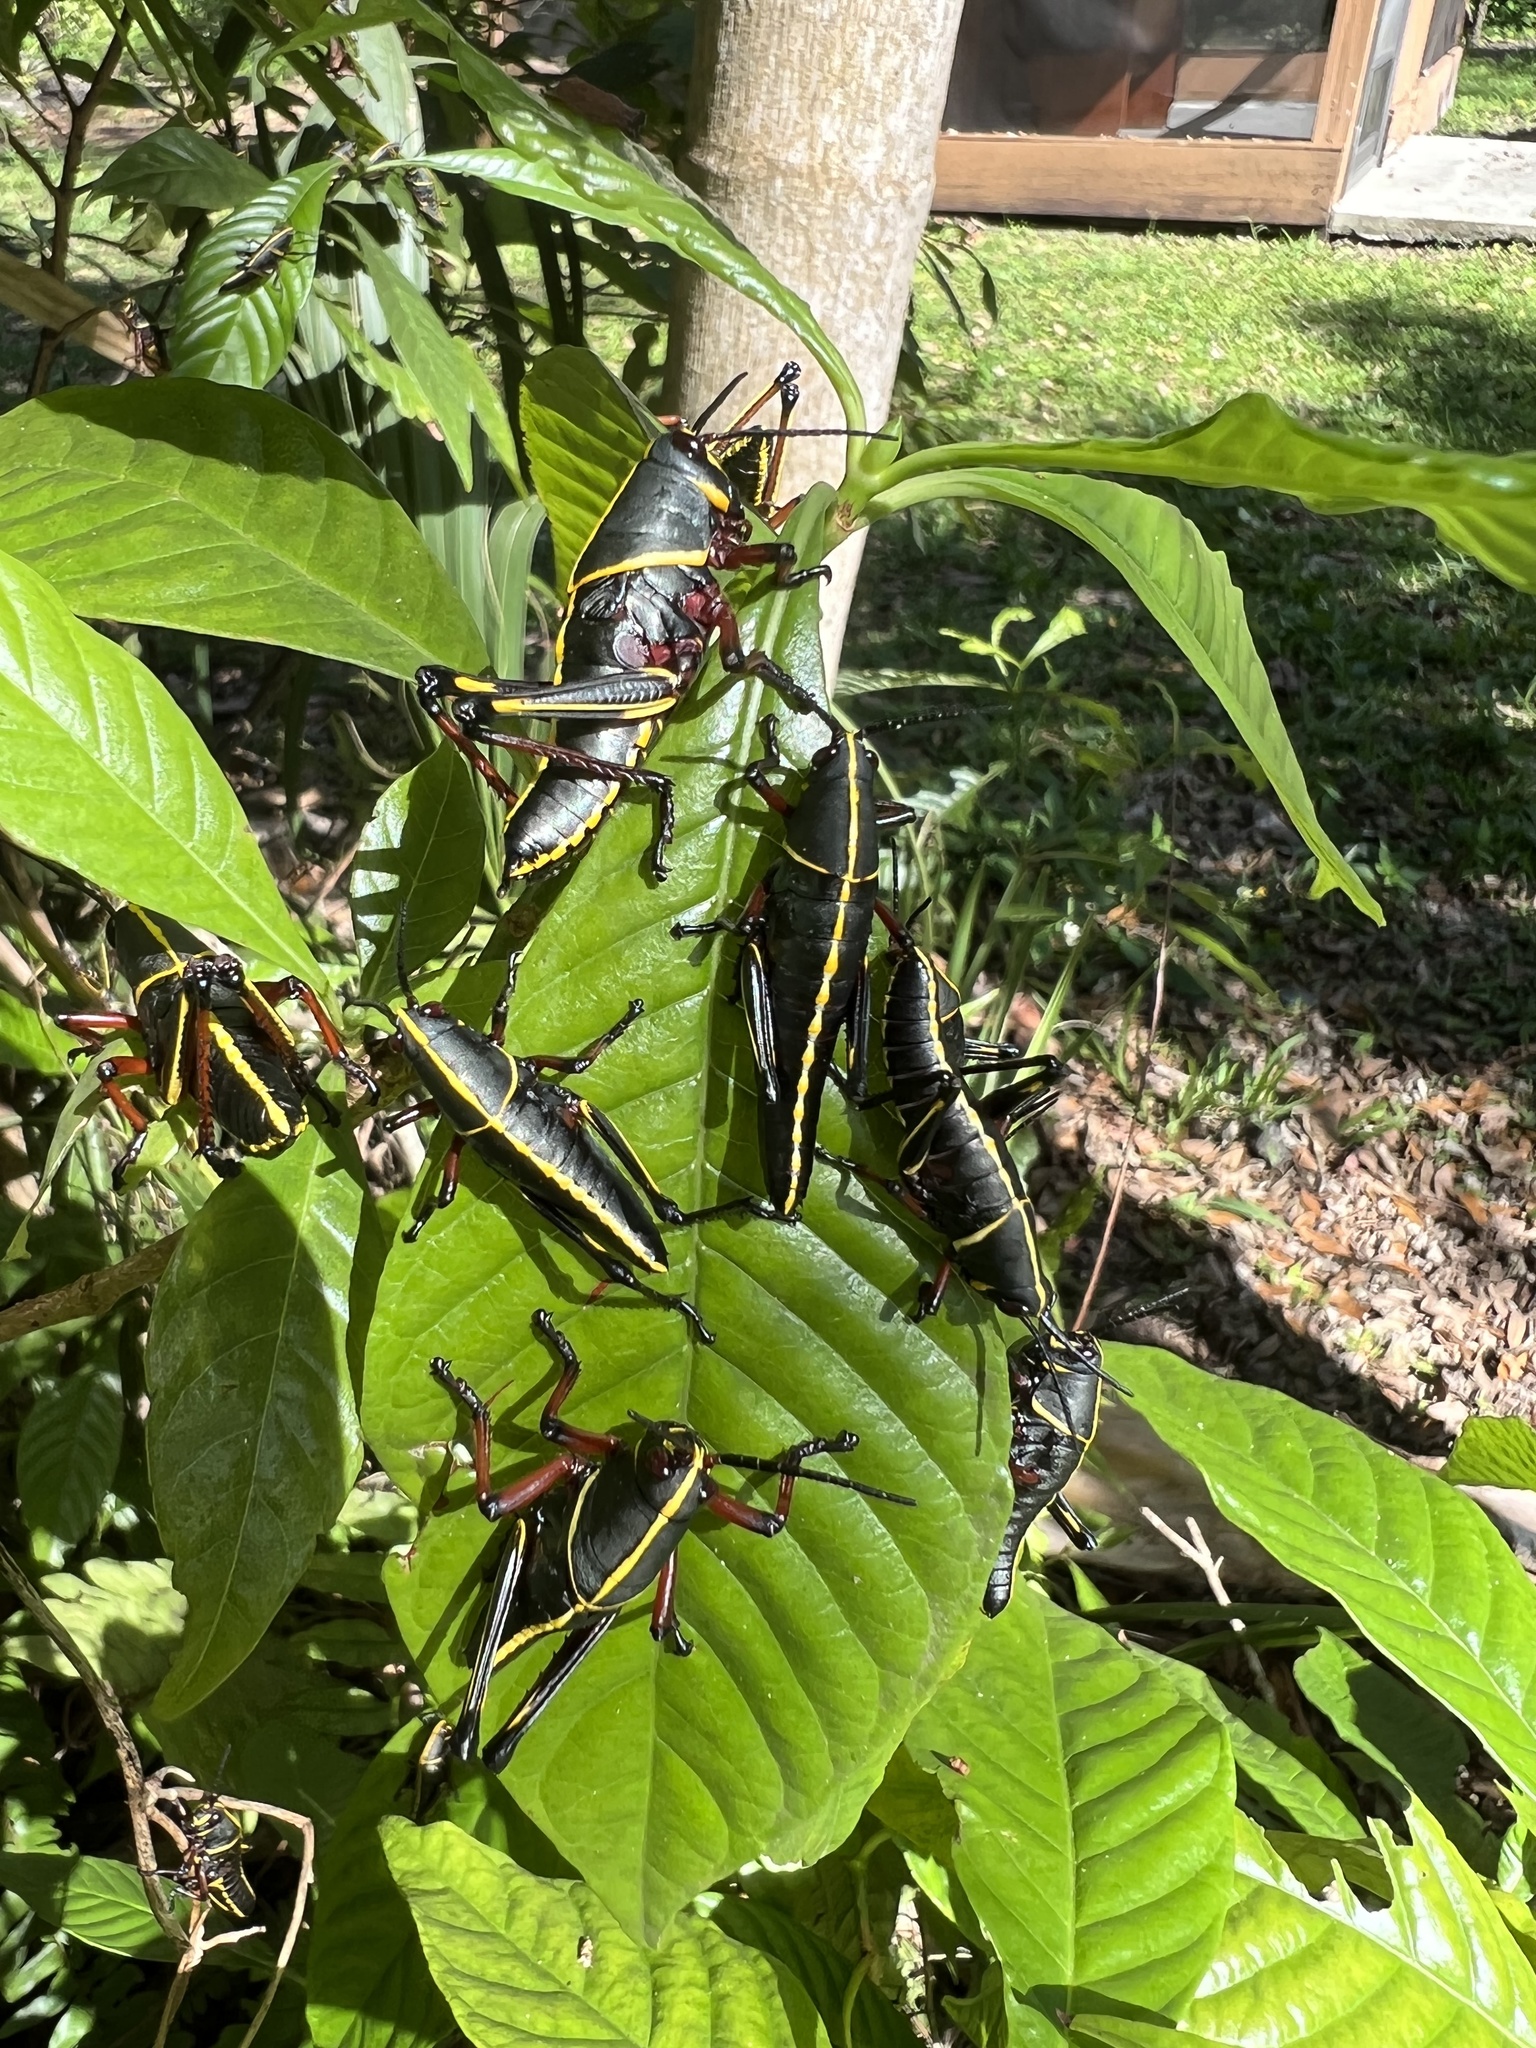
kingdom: Animalia
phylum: Arthropoda
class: Insecta
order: Orthoptera
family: Romaleidae
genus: Romalea
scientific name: Romalea microptera
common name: Eastern lubber grasshopper
